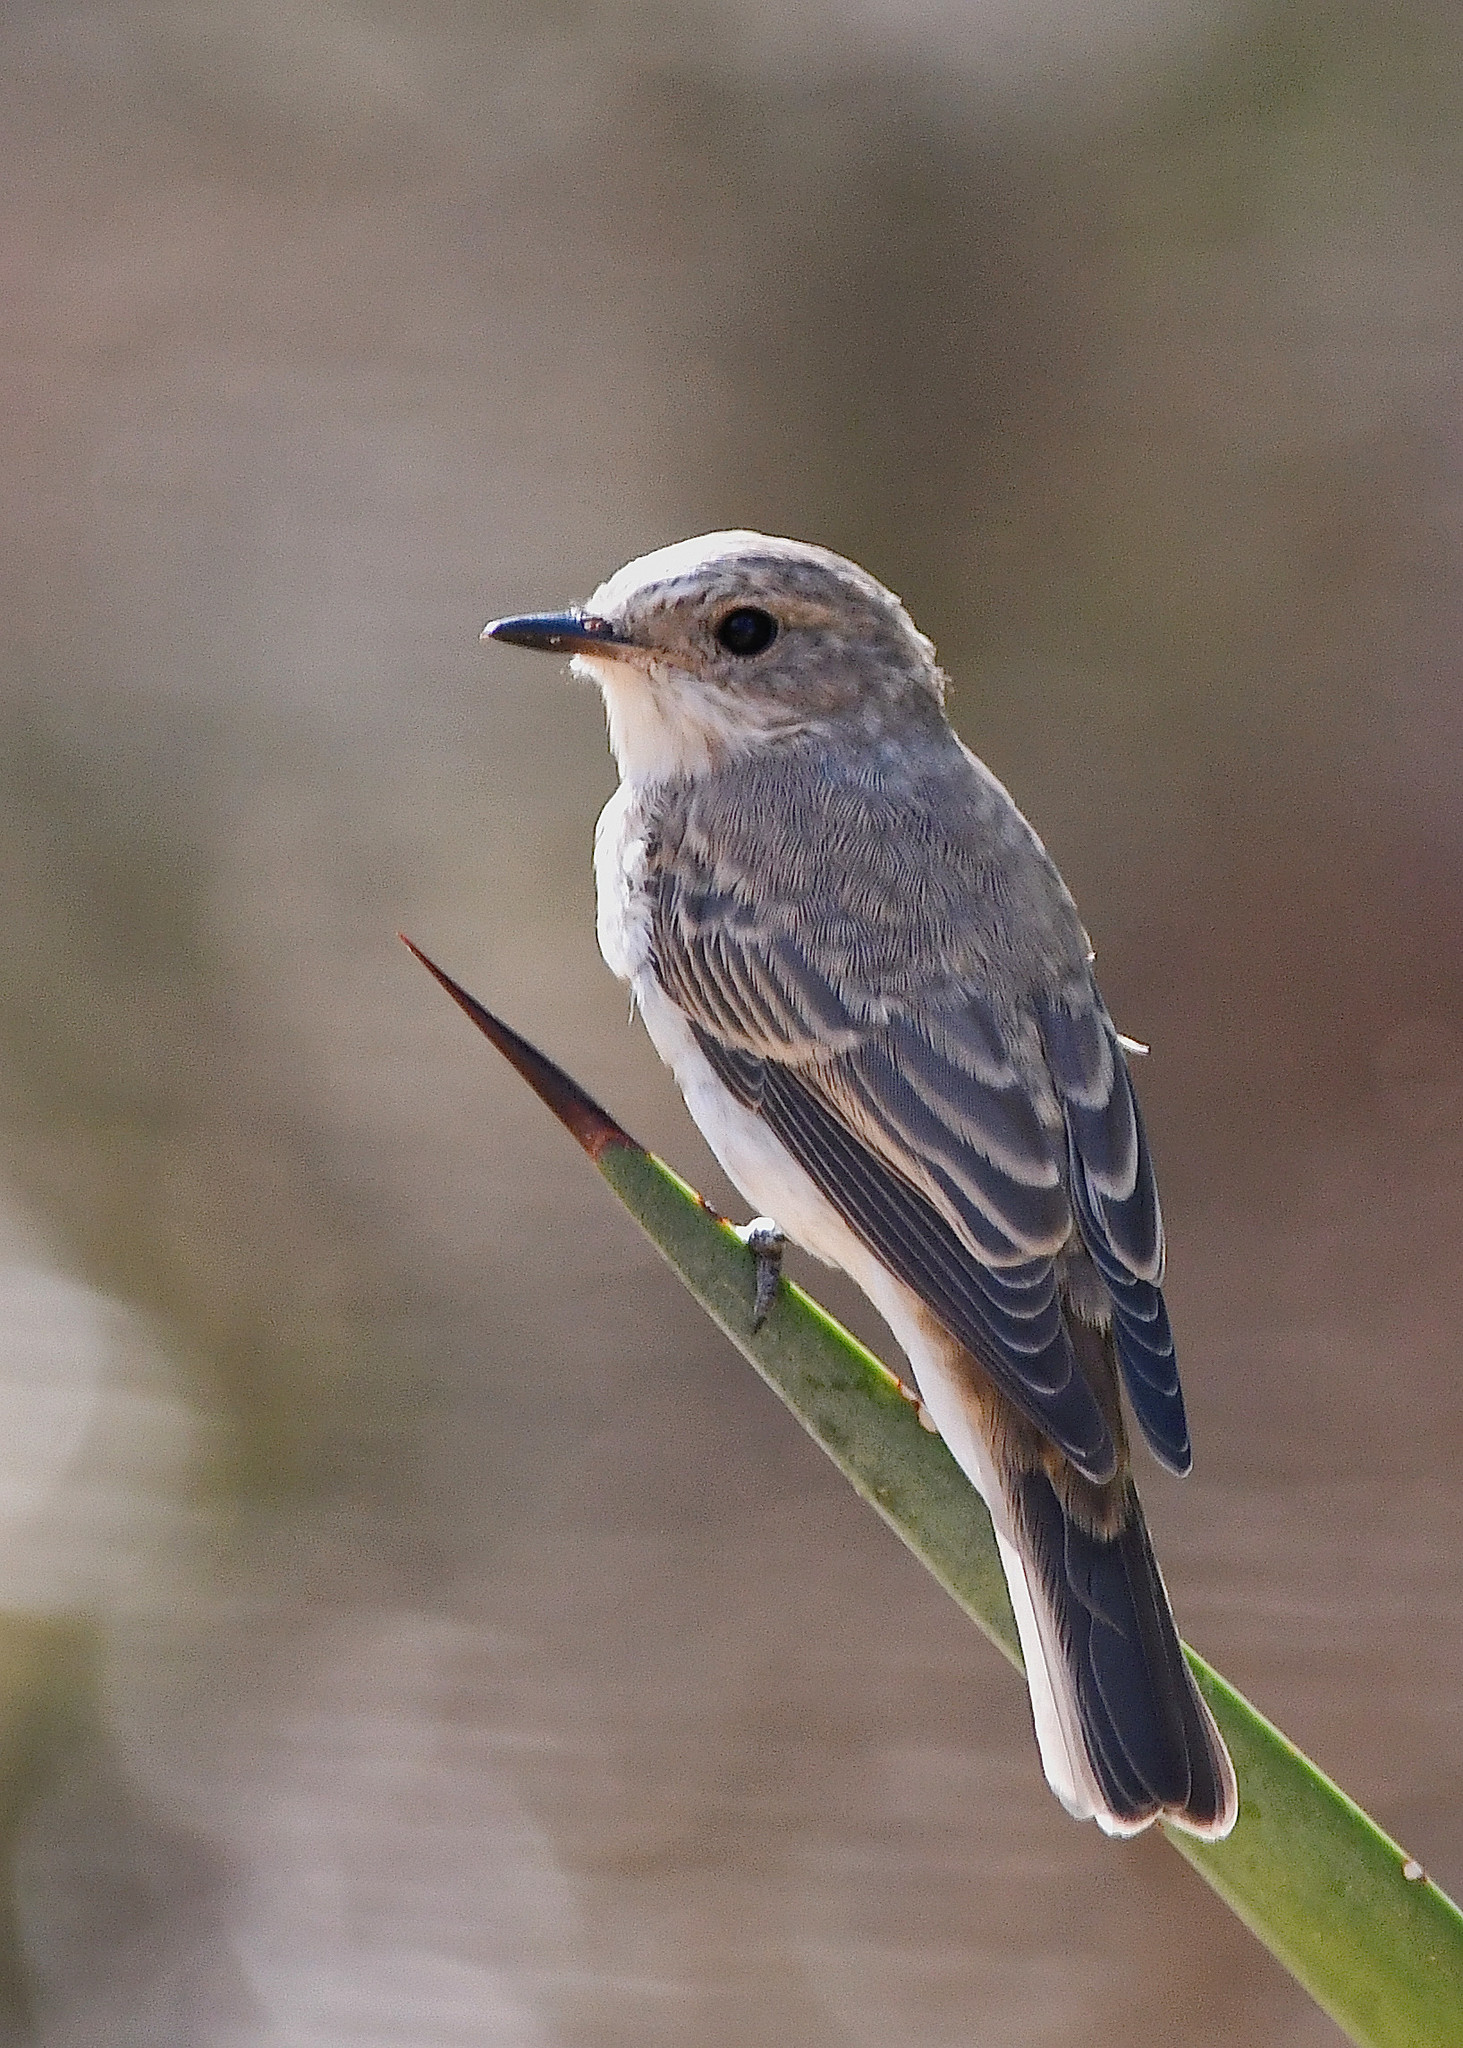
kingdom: Animalia
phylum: Chordata
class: Aves
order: Passeriformes
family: Muscicapidae
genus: Muscicapa
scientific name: Muscicapa striata
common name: Spotted flycatcher
